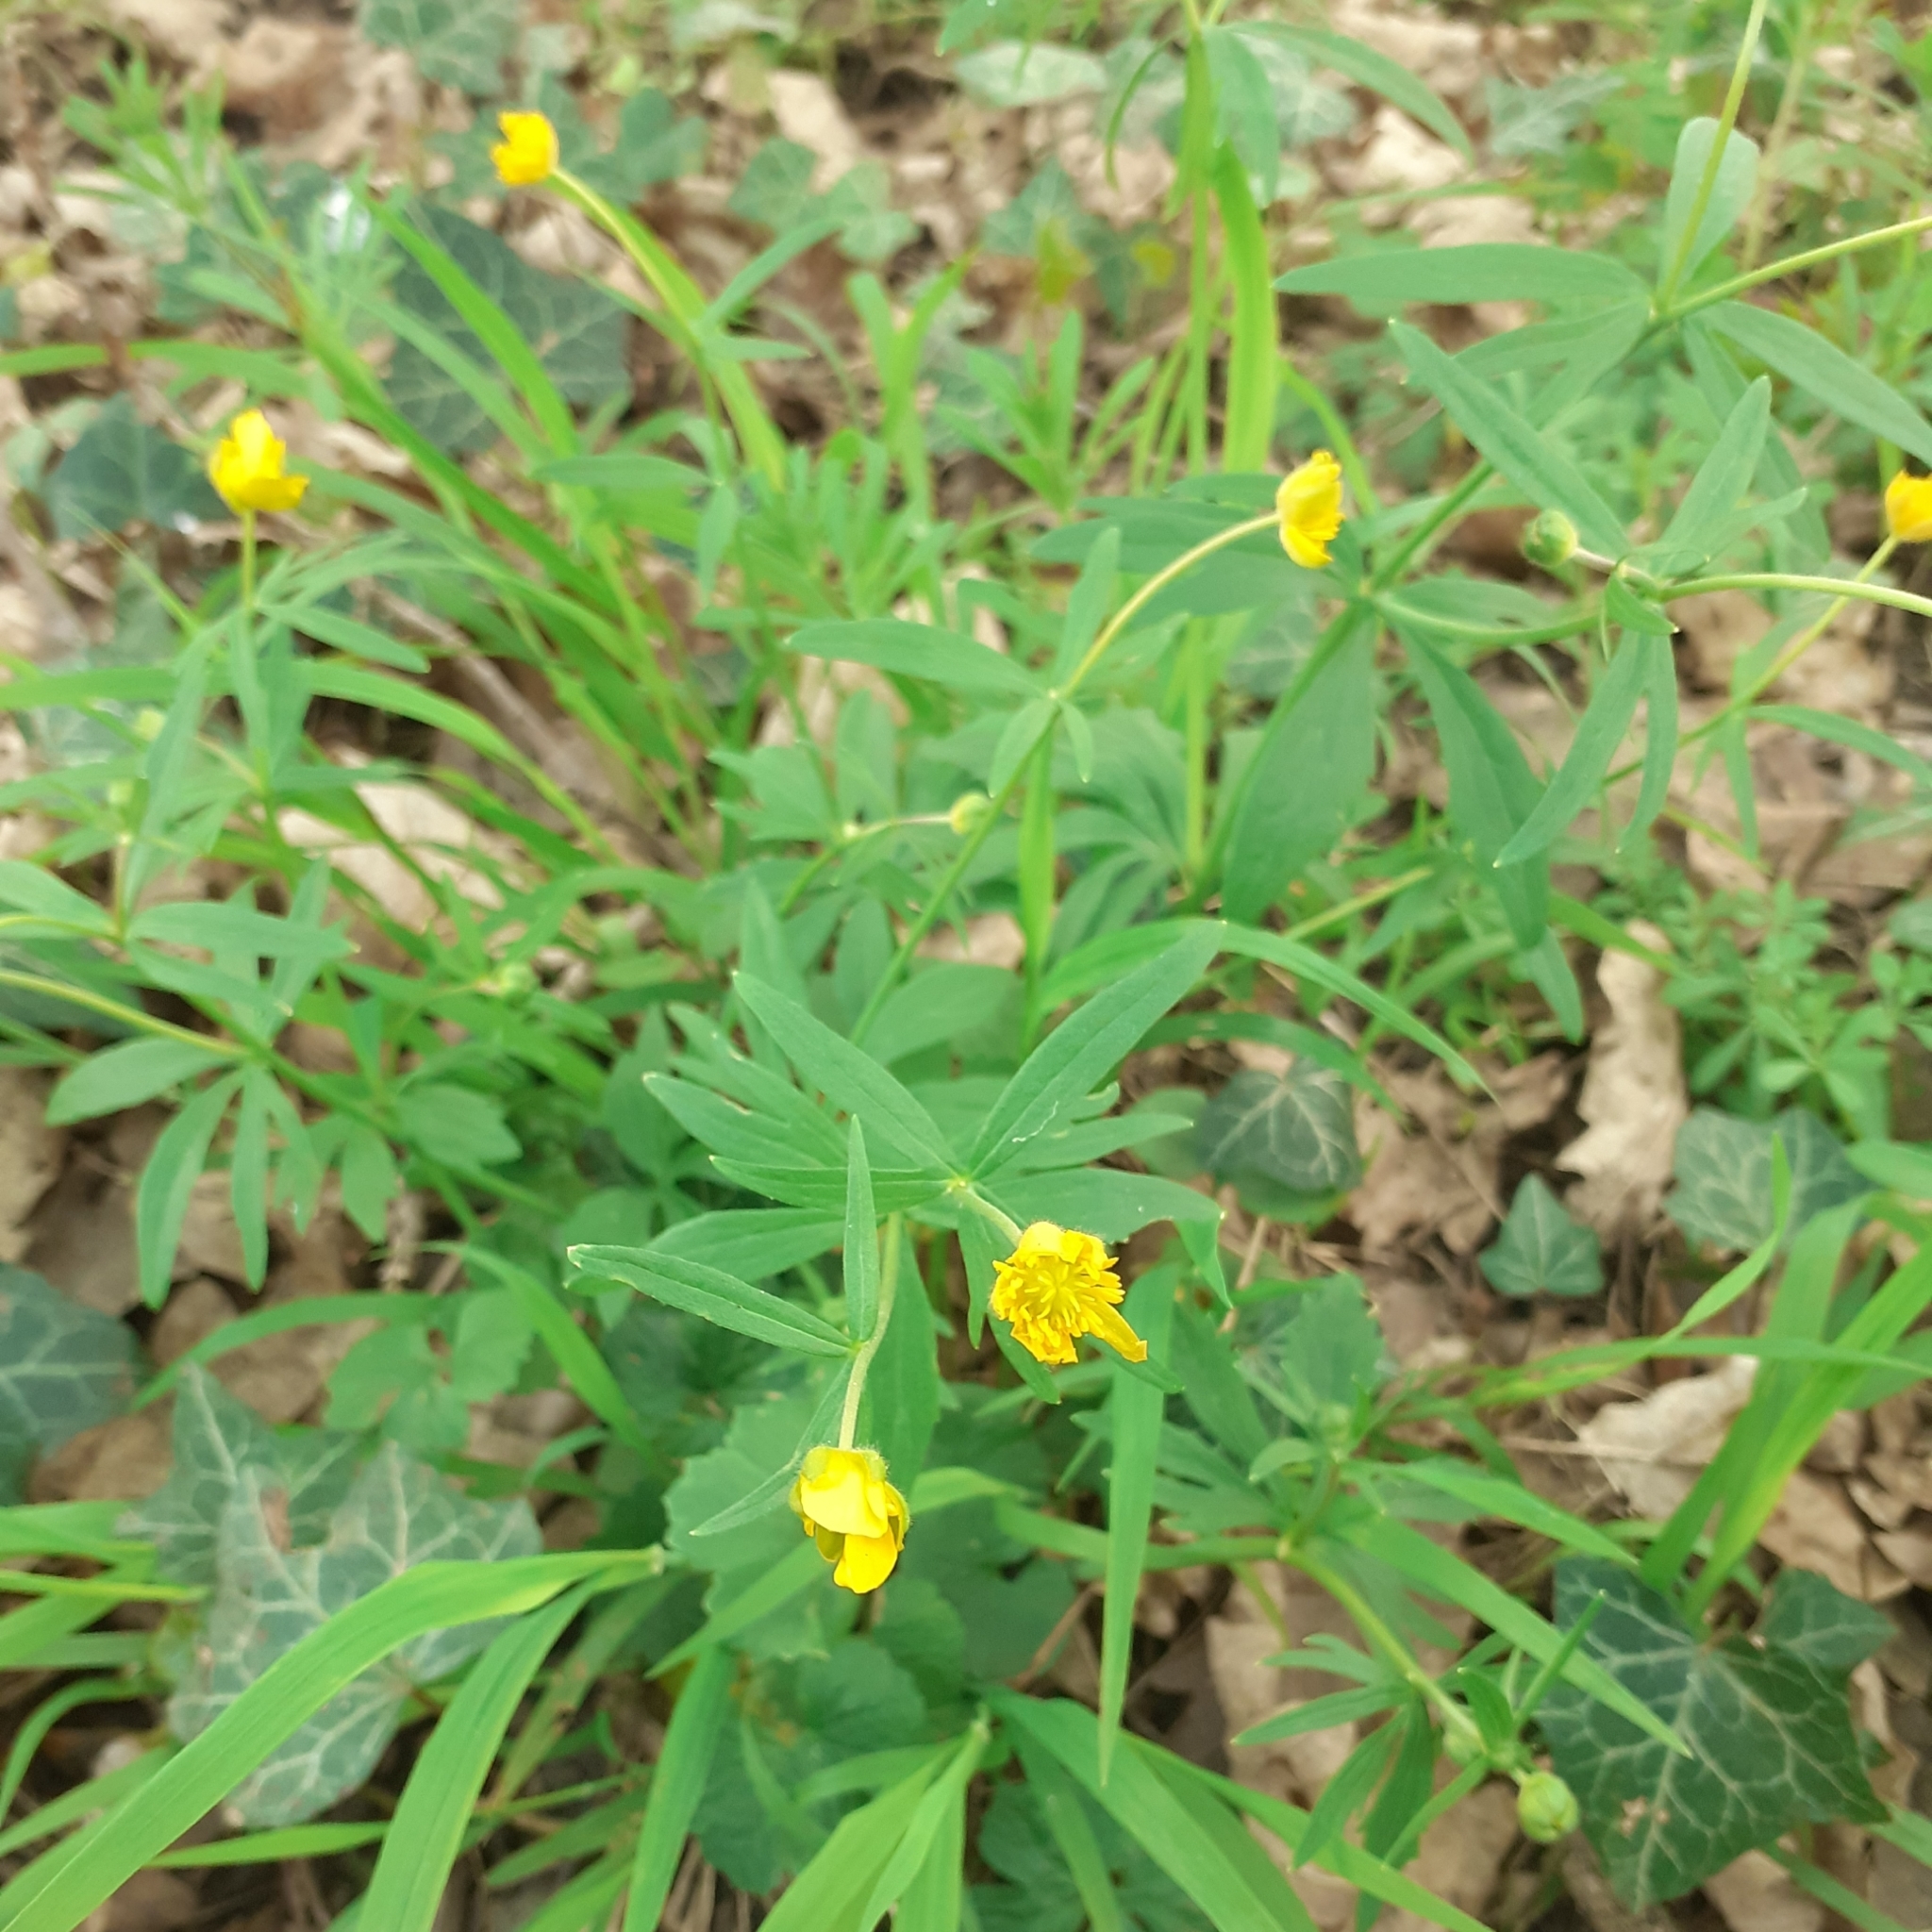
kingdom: Plantae
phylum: Tracheophyta
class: Magnoliopsida
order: Ranunculales
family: Ranunculaceae
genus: Ranunculus
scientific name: Ranunculus auricomus
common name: Goldilocks buttercup
